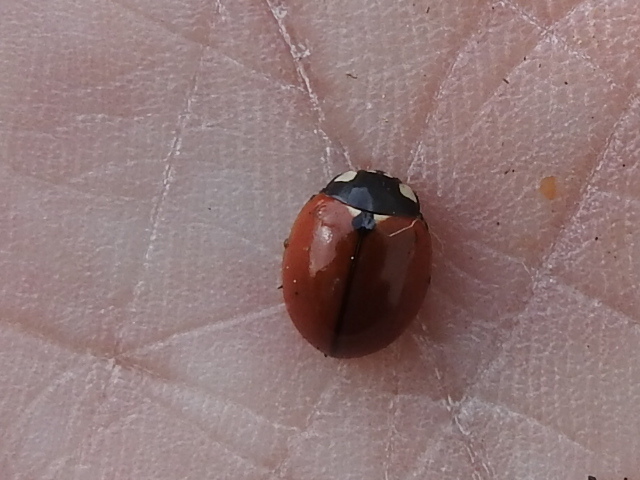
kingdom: Animalia
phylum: Arthropoda
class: Insecta
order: Coleoptera
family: Coccinellidae
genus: Coccinella
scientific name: Coccinella californica
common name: Lady beetle
